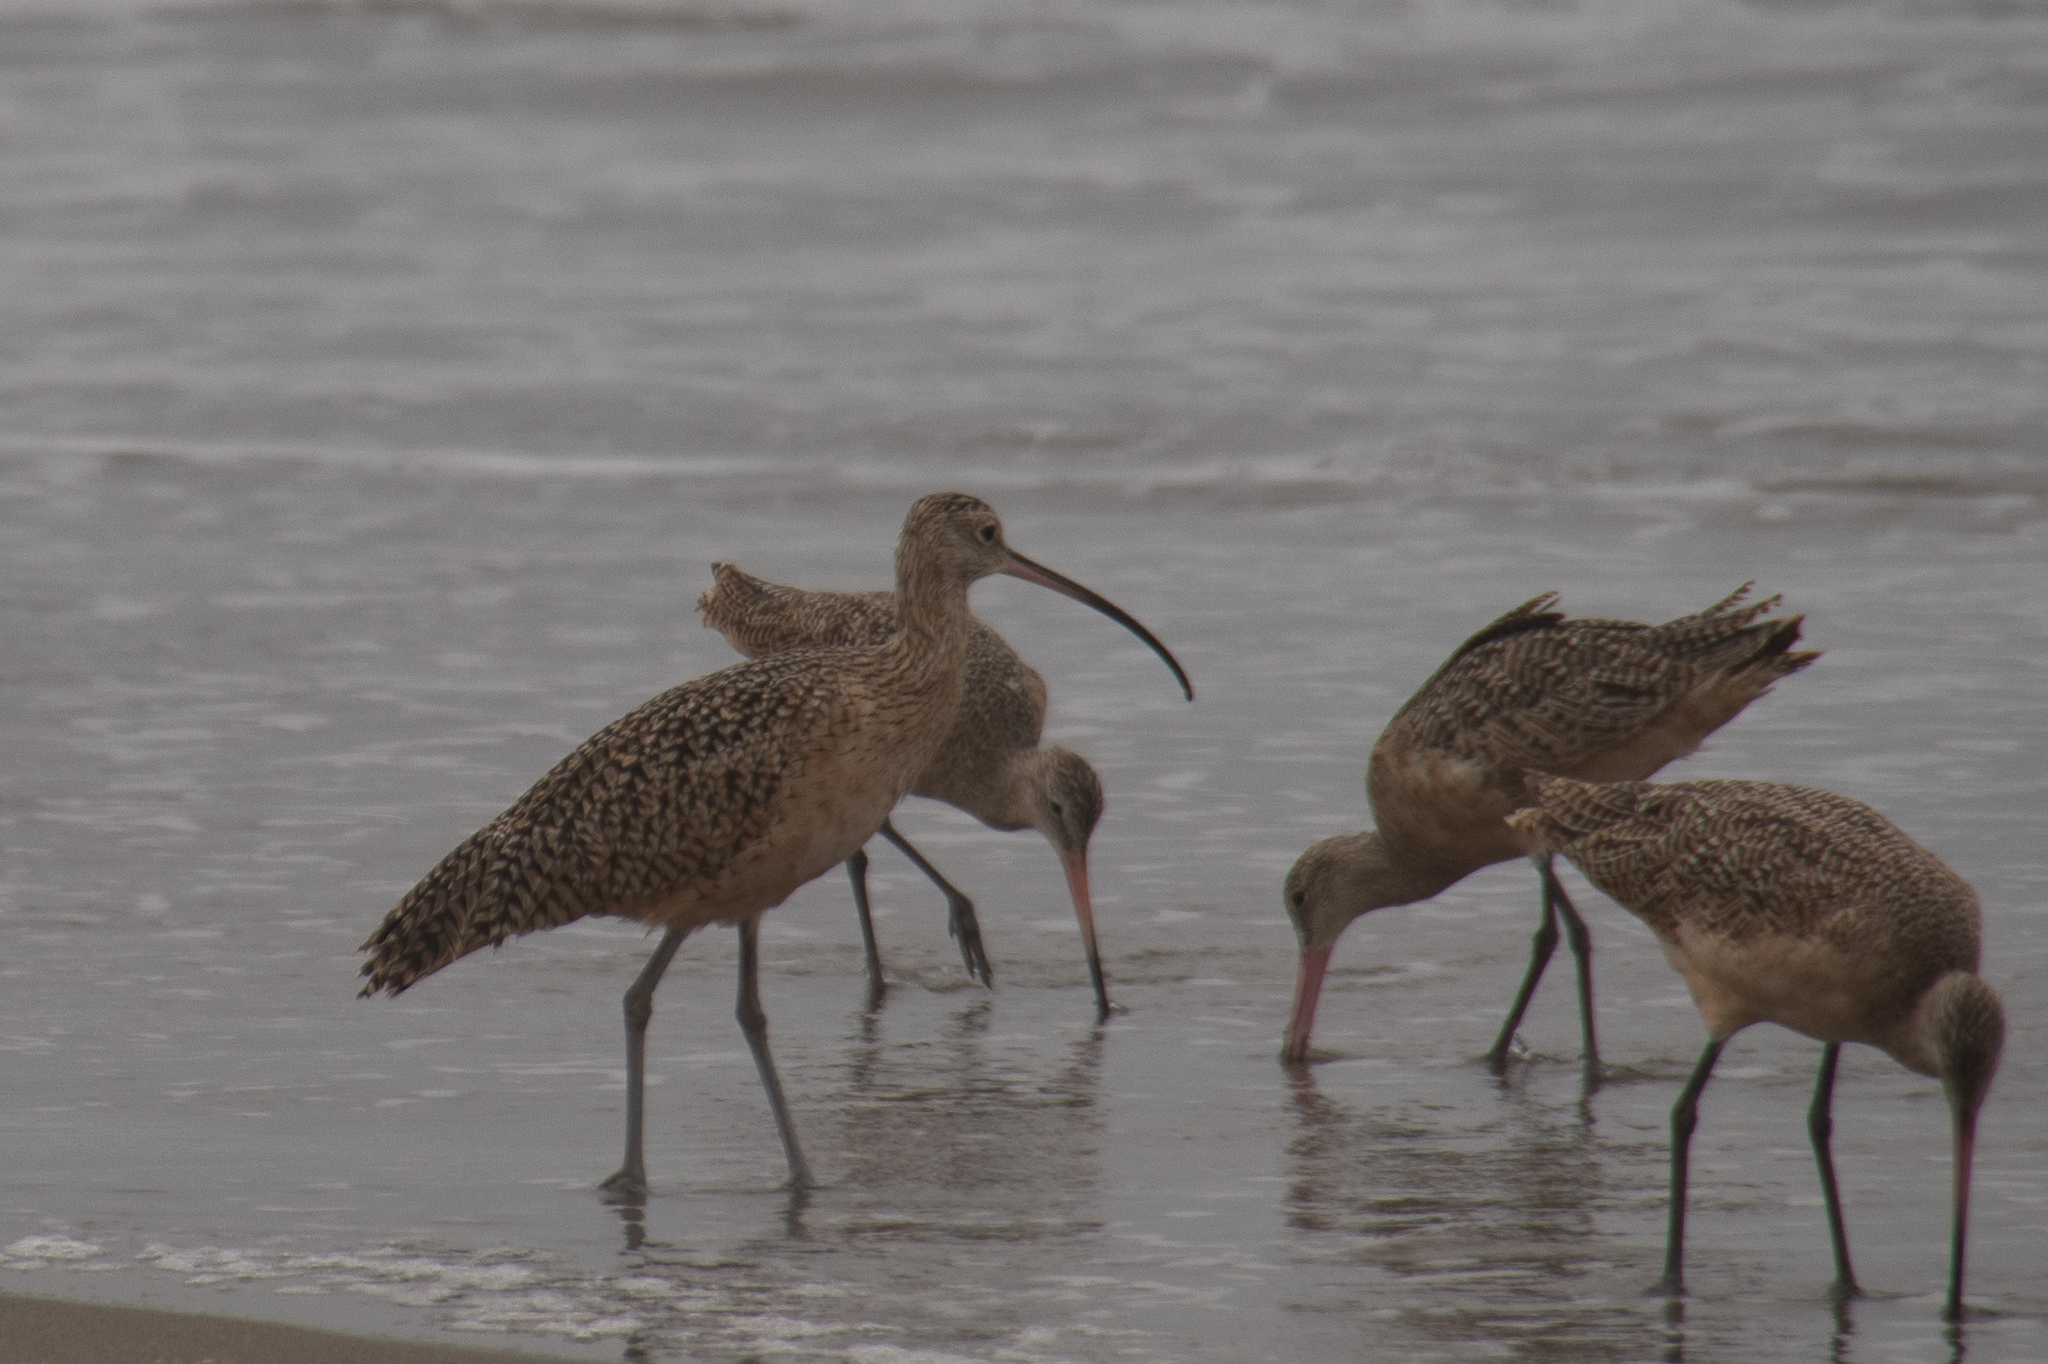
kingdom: Animalia
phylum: Chordata
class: Aves
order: Charadriiformes
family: Scolopacidae
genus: Numenius
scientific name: Numenius americanus
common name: Long-billed curlew
